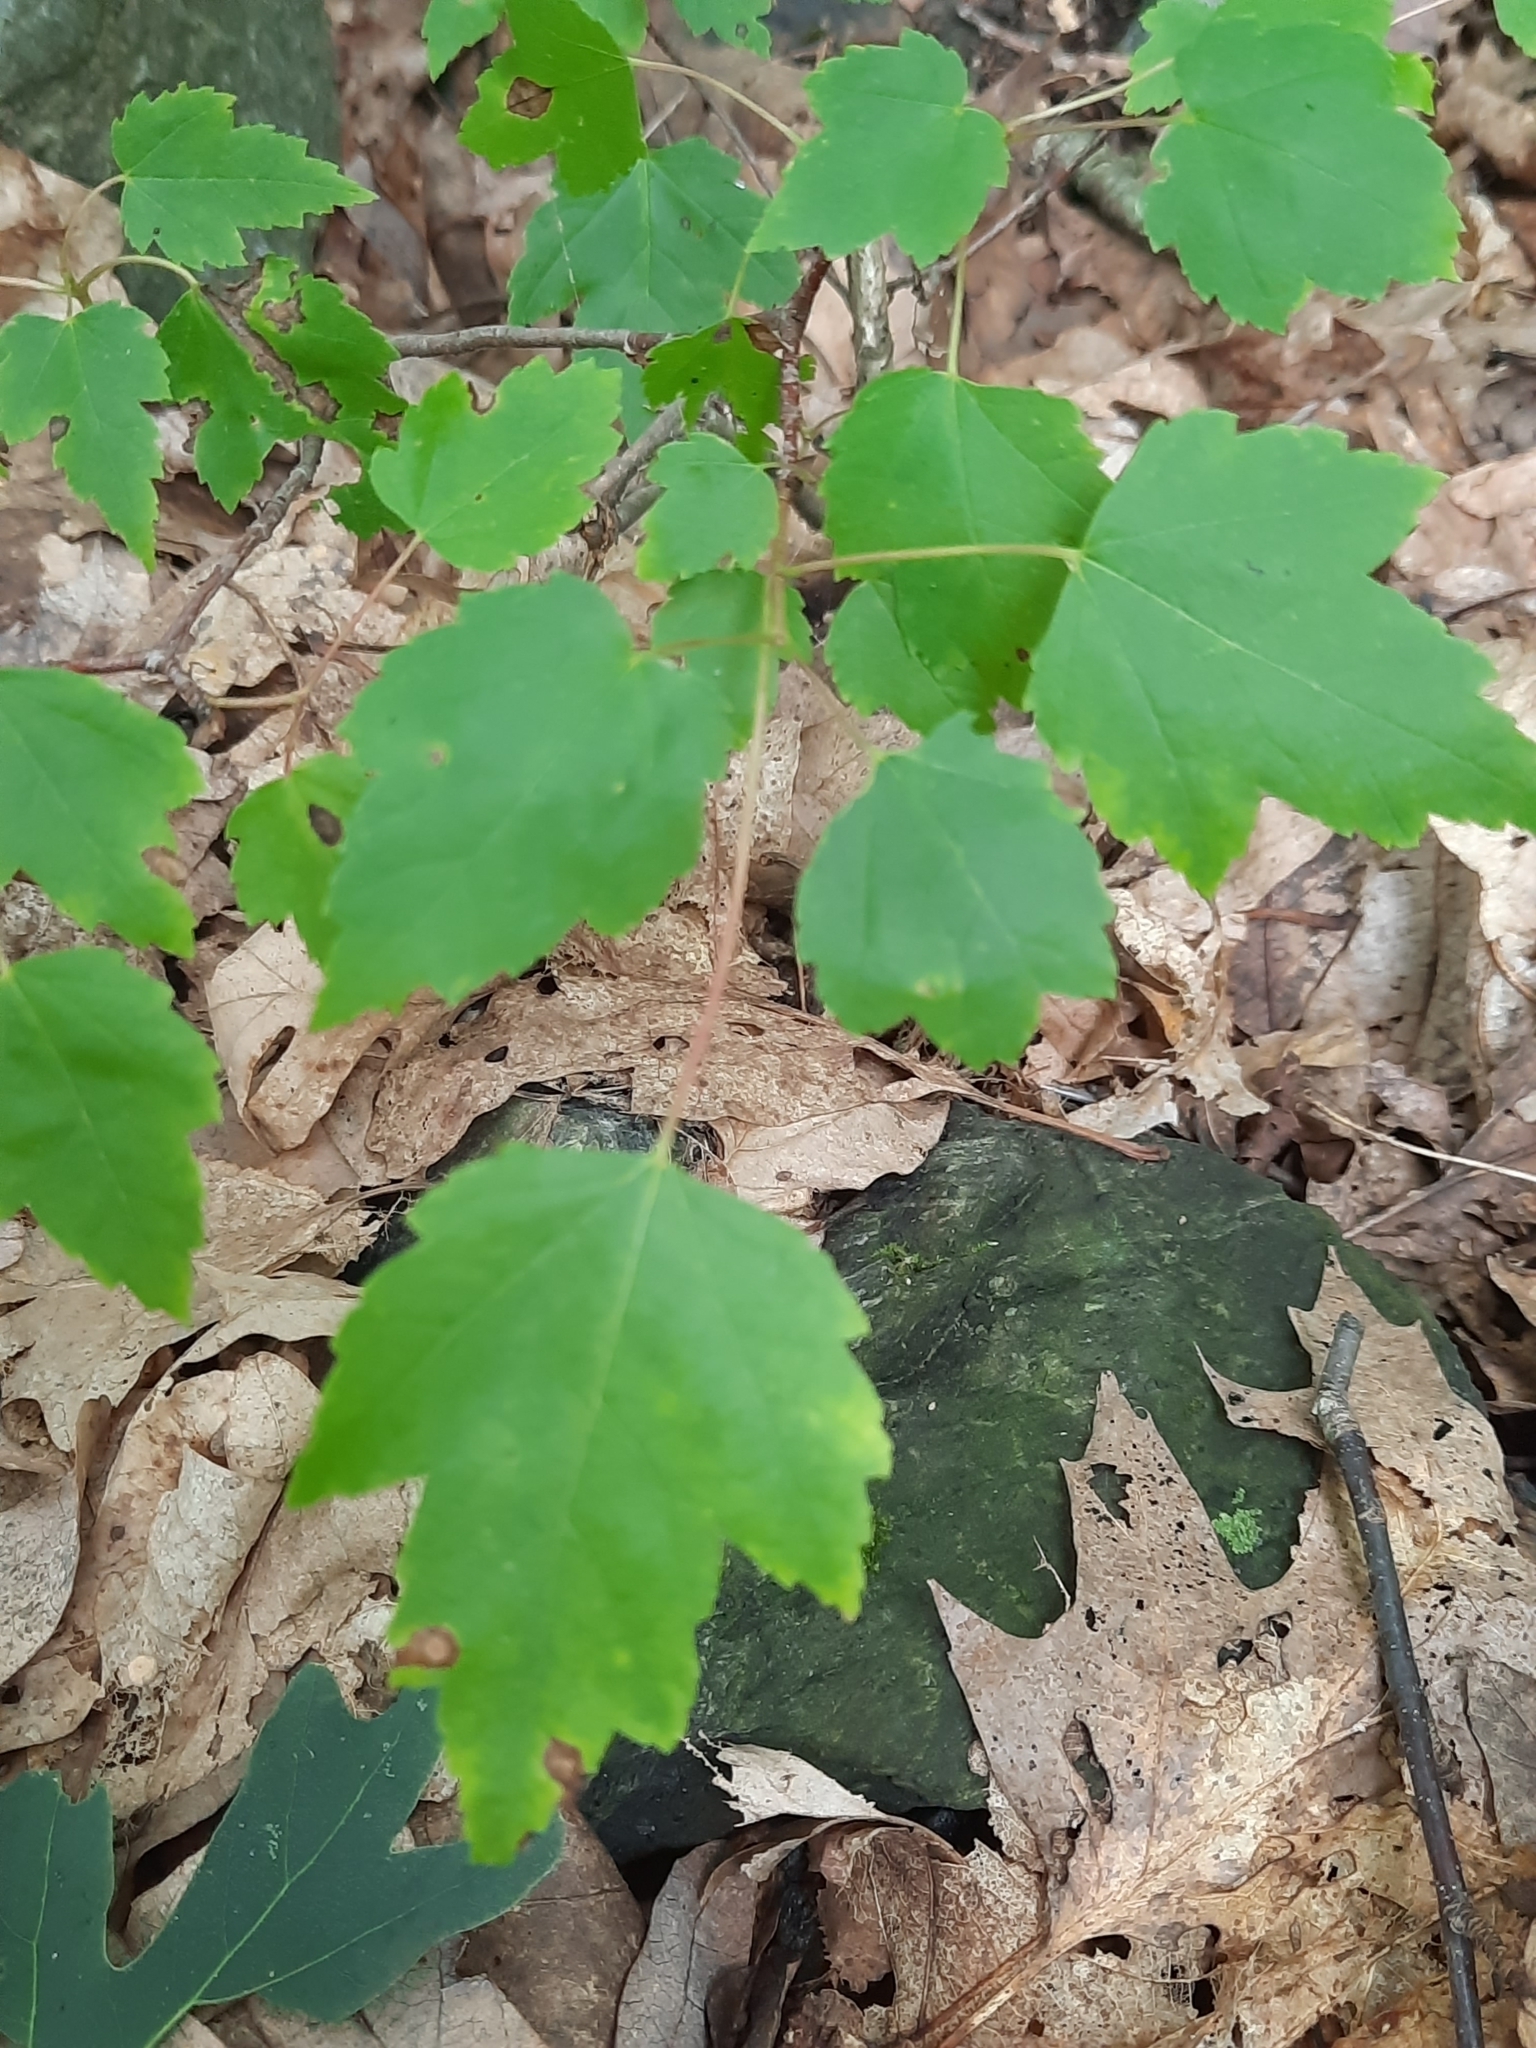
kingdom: Plantae
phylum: Tracheophyta
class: Magnoliopsida
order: Sapindales
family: Sapindaceae
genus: Acer
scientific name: Acer rubrum
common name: Red maple
